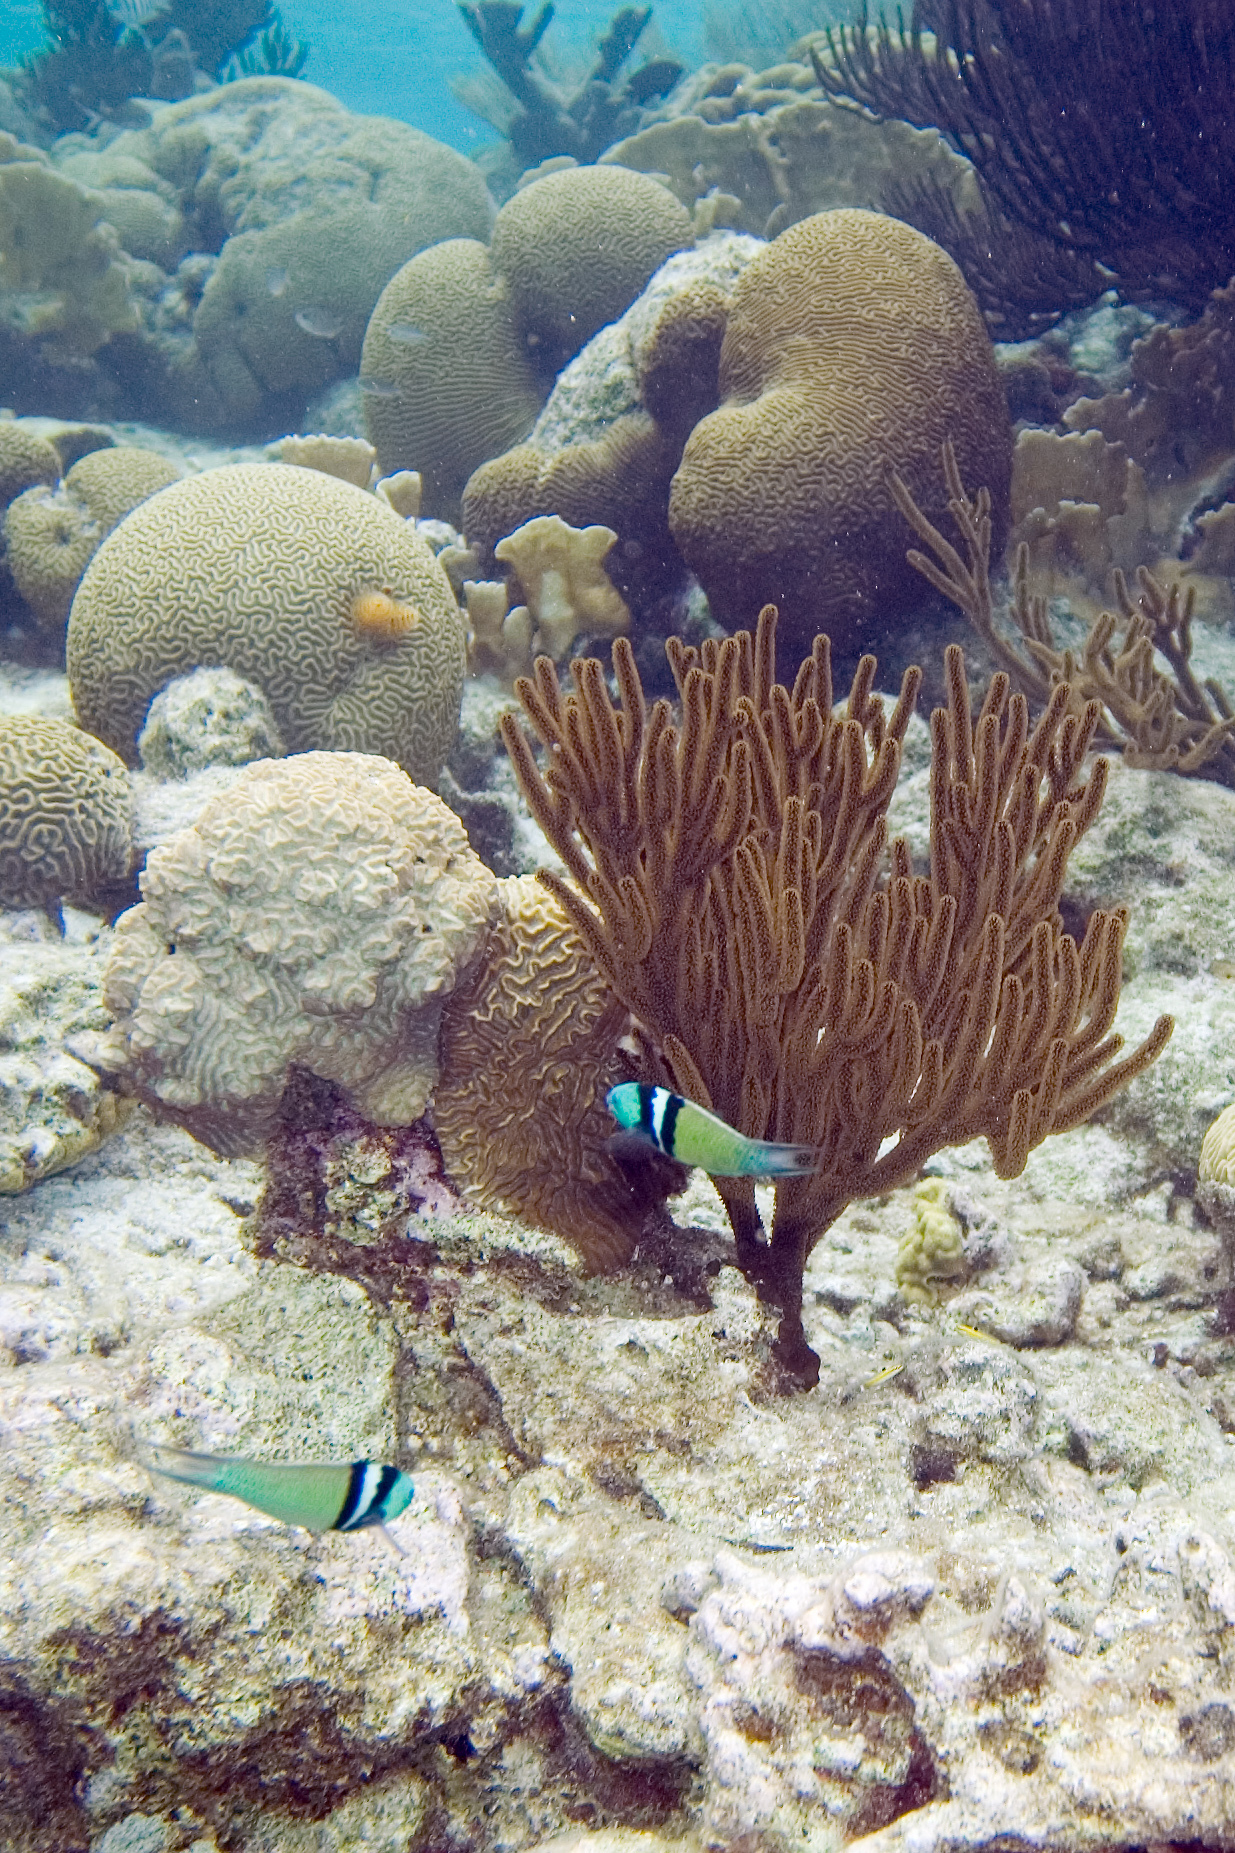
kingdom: Animalia
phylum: Chordata
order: Perciformes
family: Labridae
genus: Thalassoma
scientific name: Thalassoma bifasciatum
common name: Bluehead wrasse
